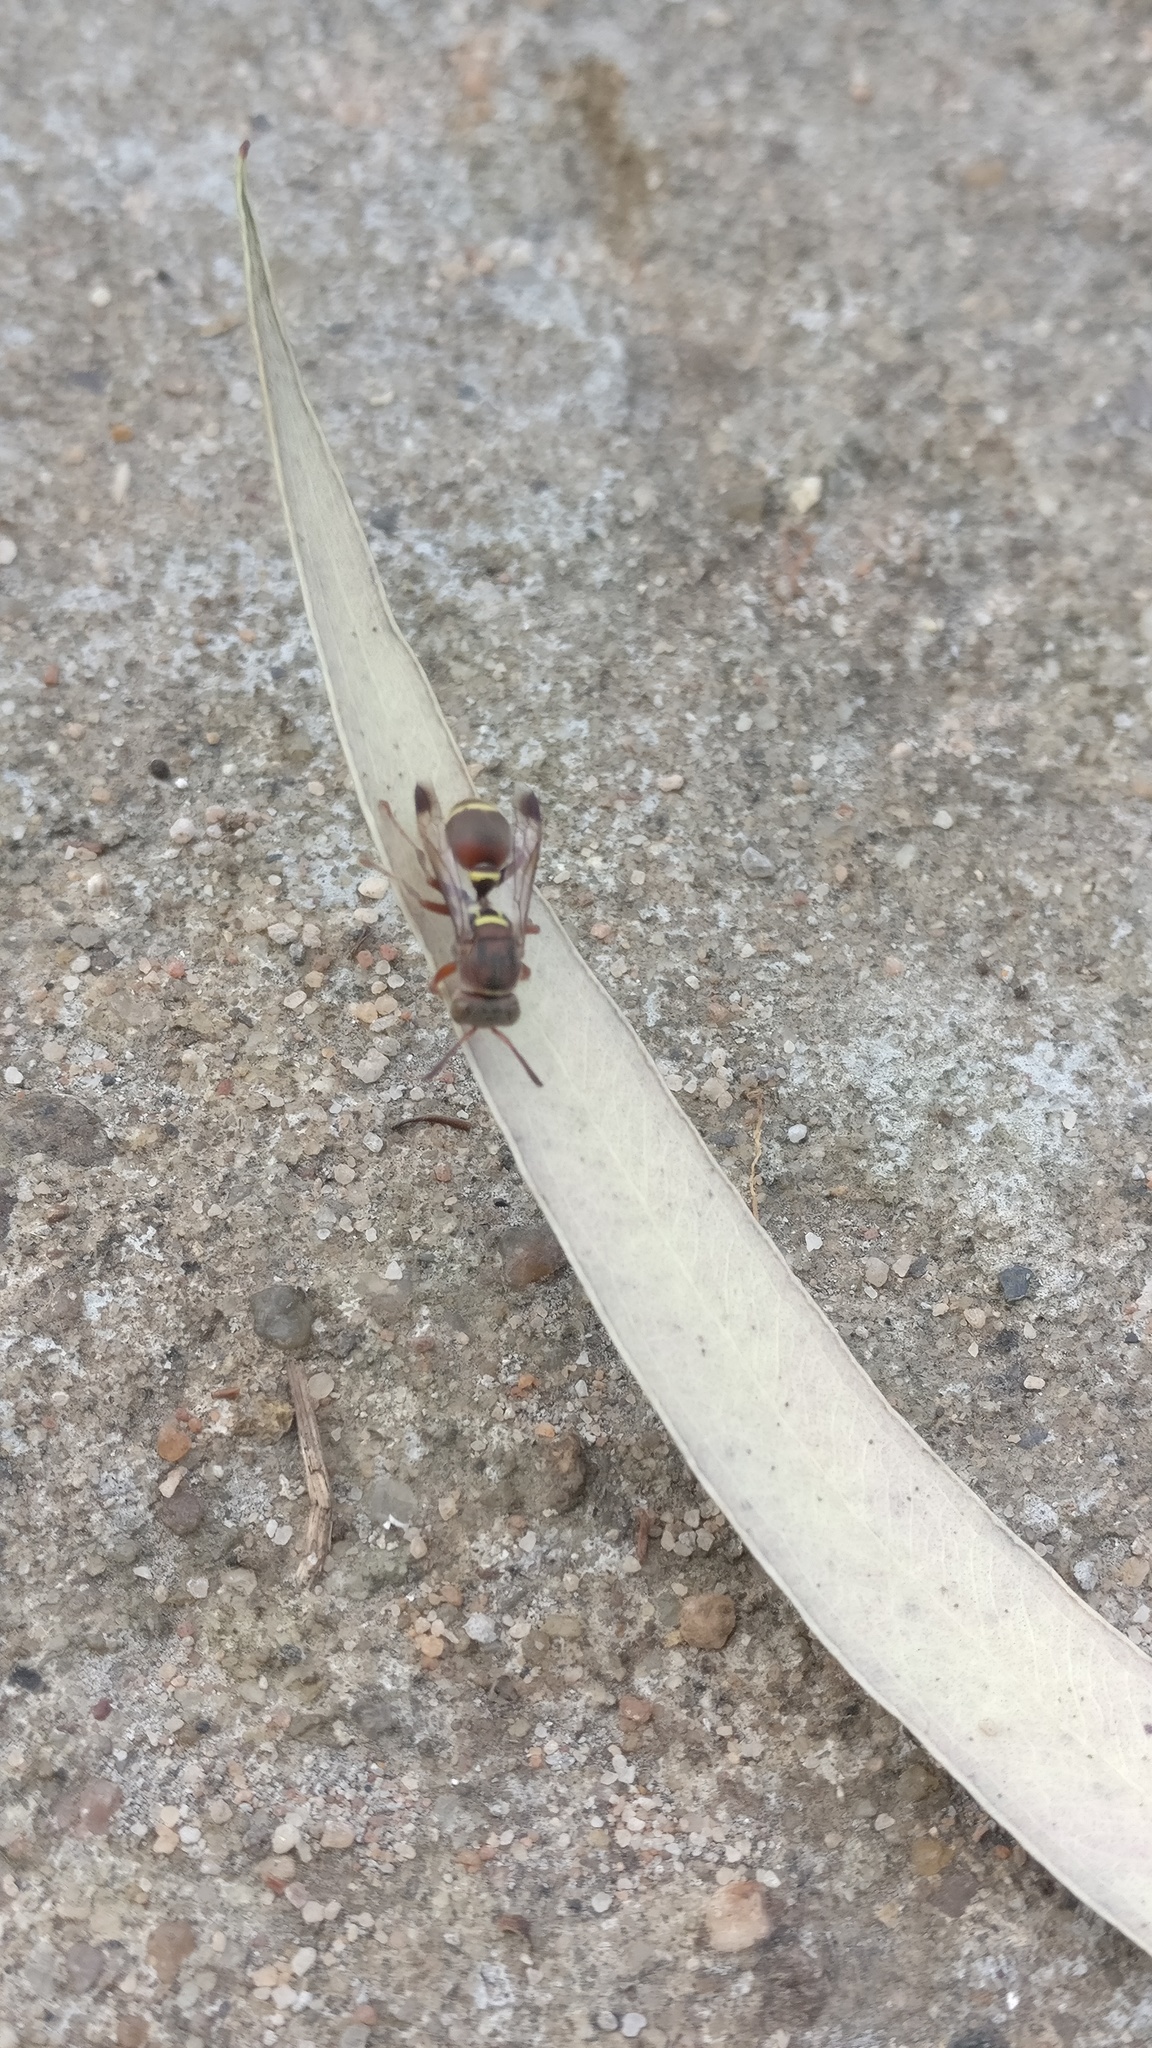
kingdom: Animalia
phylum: Arthropoda
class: Insecta
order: Hymenoptera
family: Vespidae
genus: Ropalidia
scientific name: Ropalidia rufoplagiata
